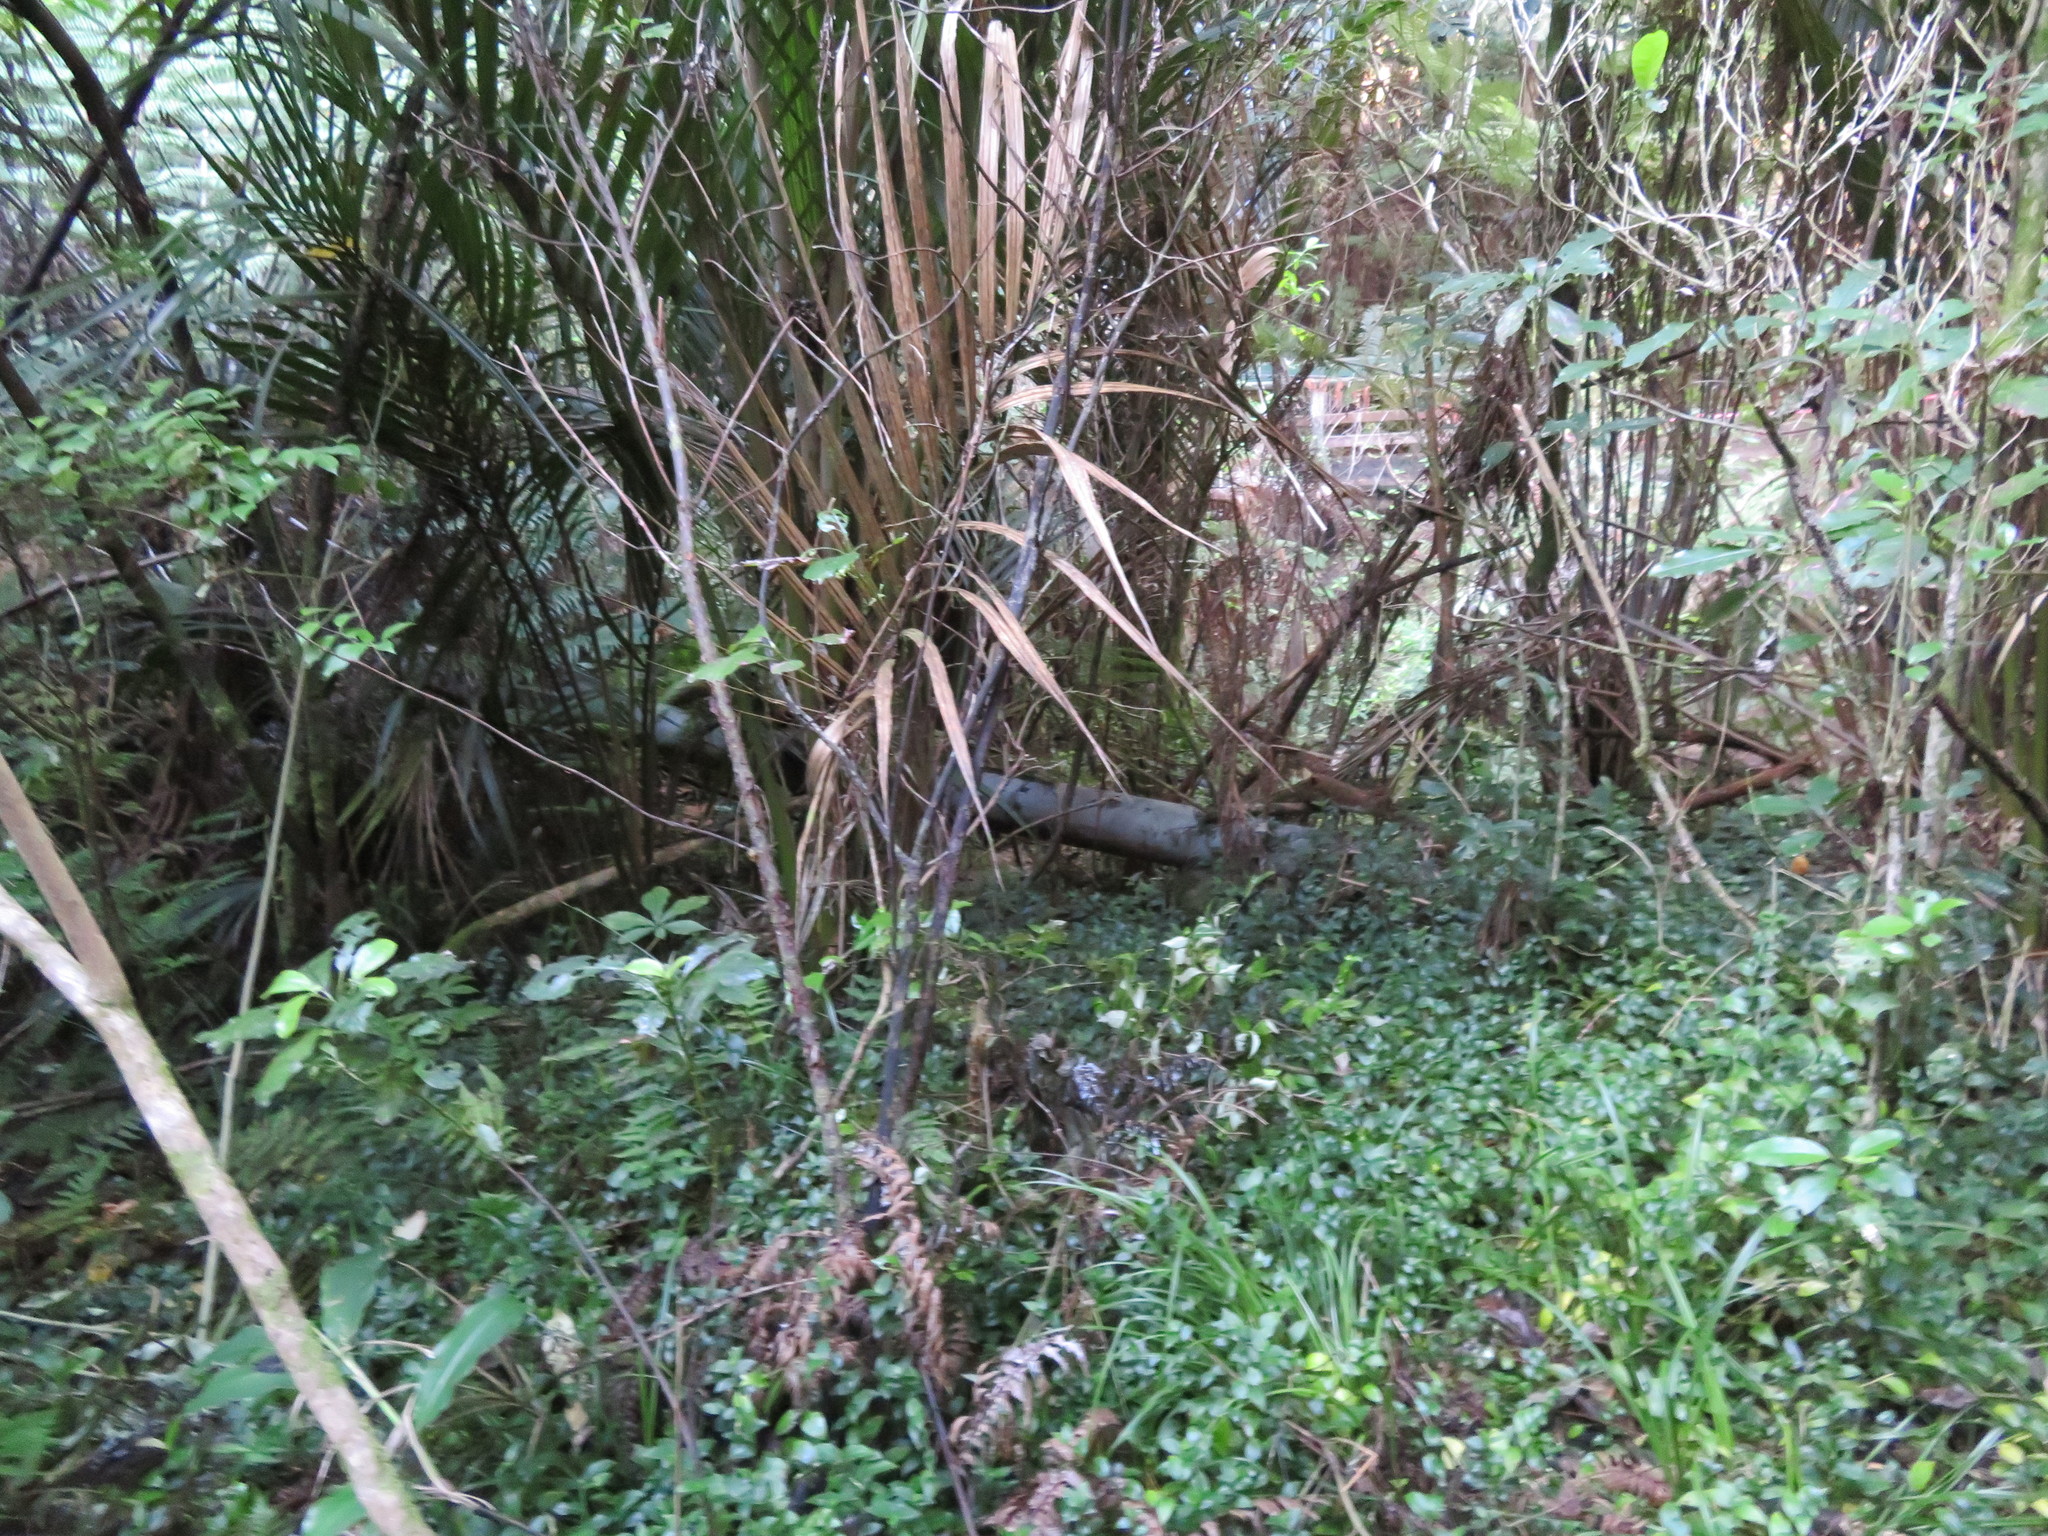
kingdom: Plantae
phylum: Tracheophyta
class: Magnoliopsida
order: Apiales
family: Araliaceae
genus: Schefflera
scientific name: Schefflera digitata
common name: Pate
